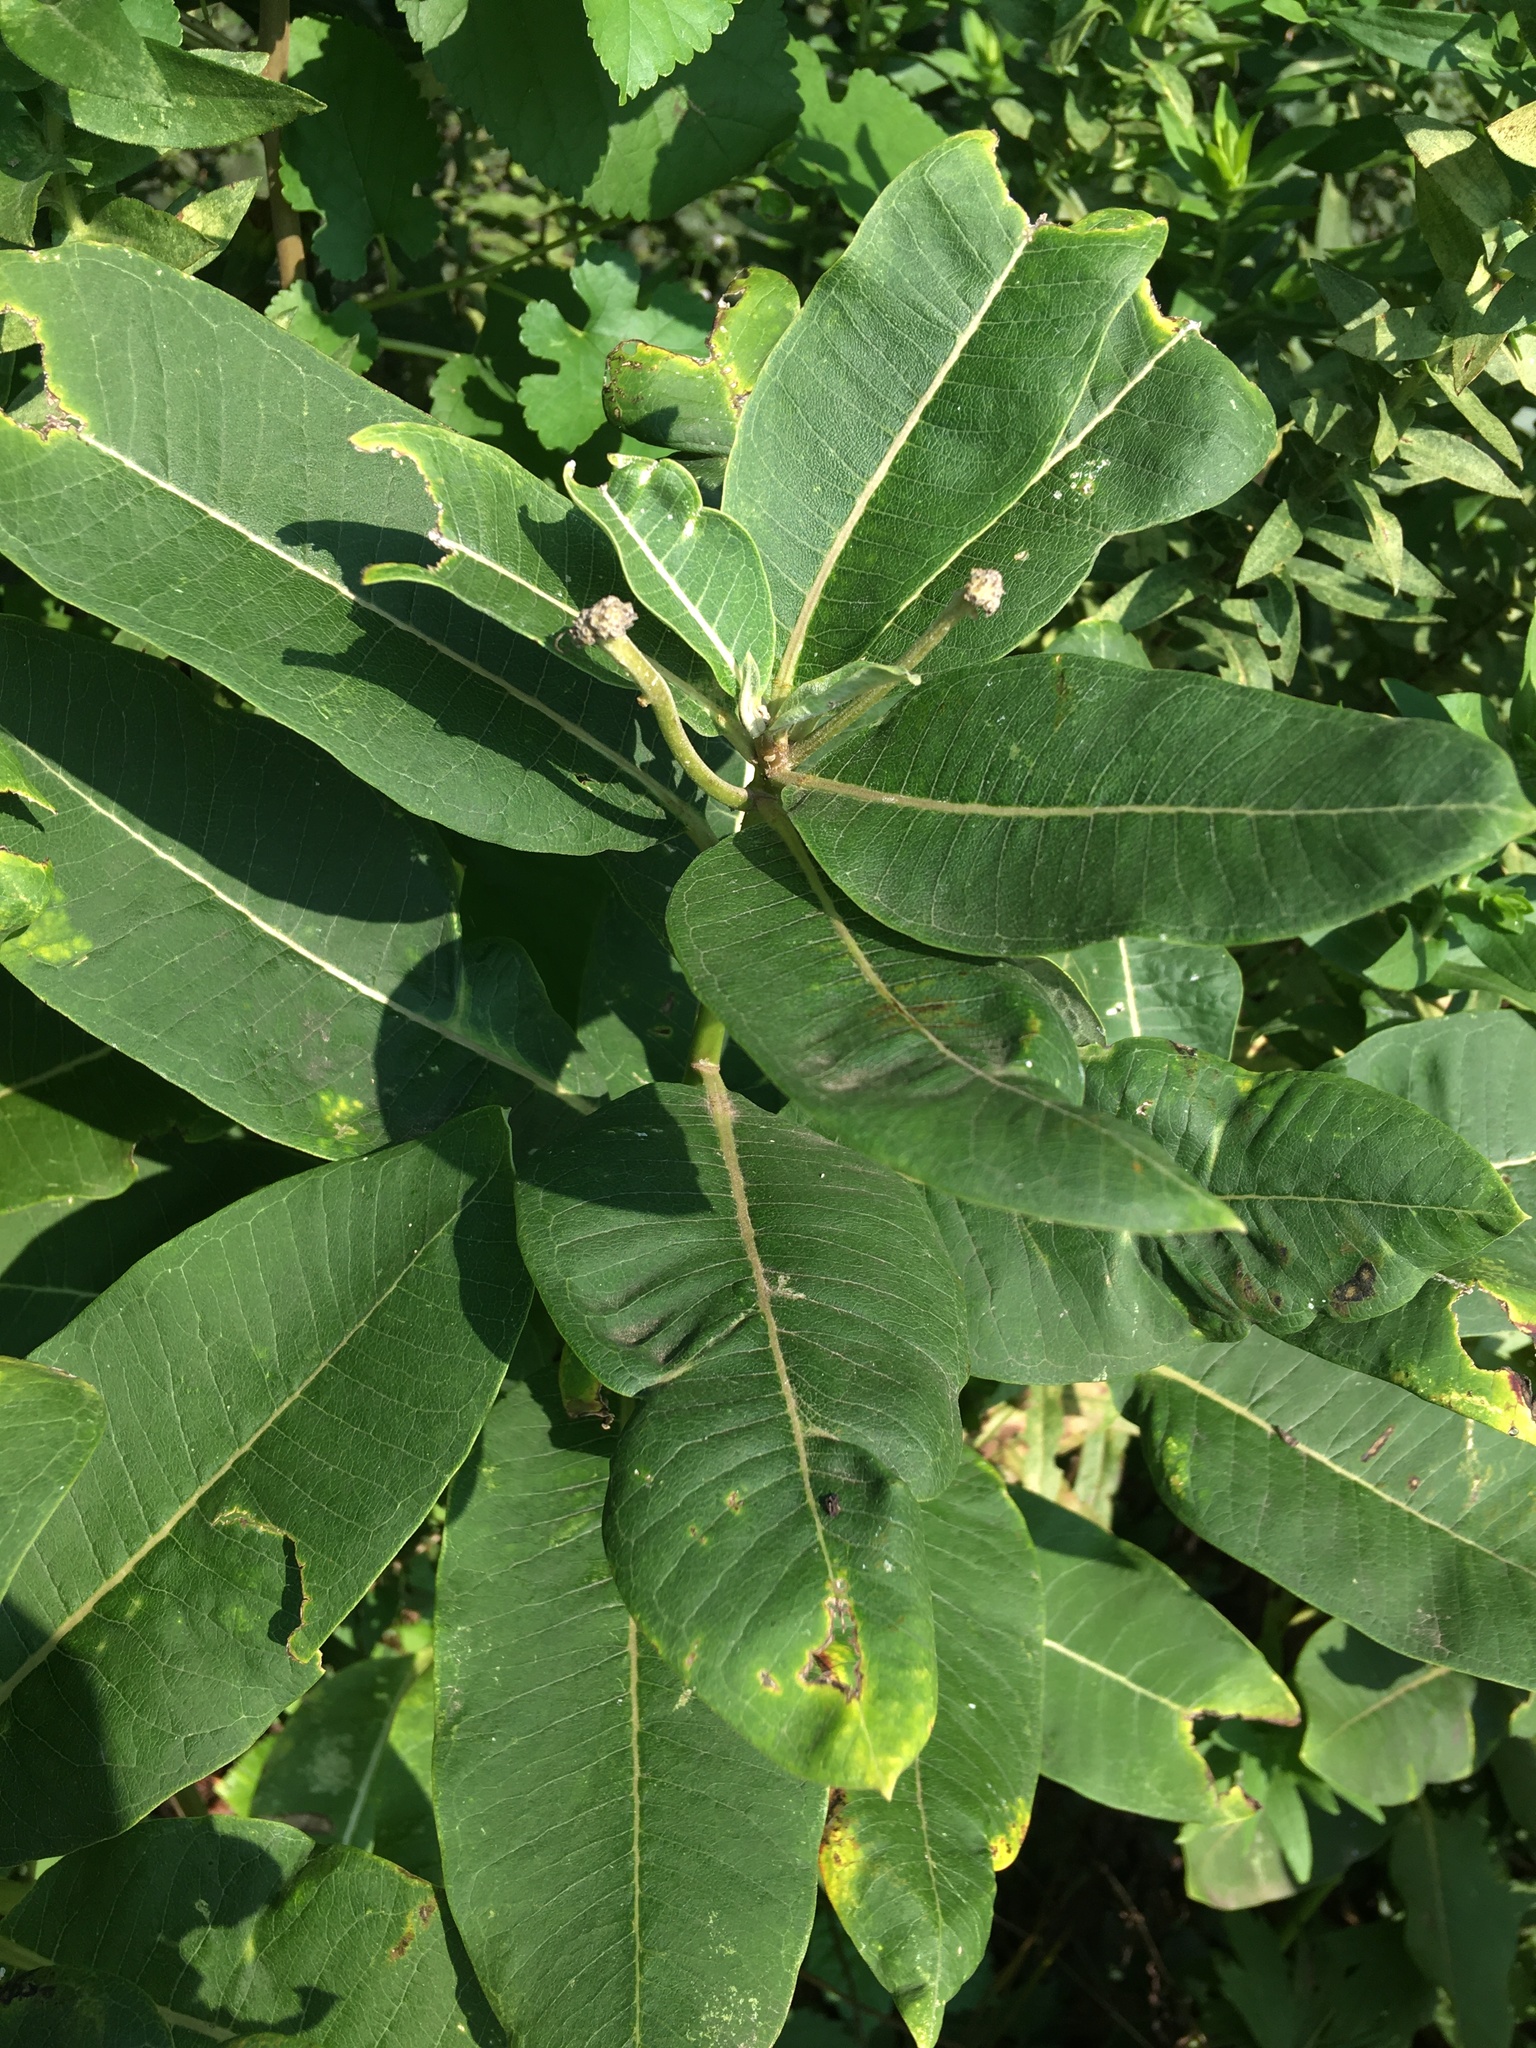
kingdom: Plantae
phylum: Tracheophyta
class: Magnoliopsida
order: Gentianales
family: Apocynaceae
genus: Asclepias
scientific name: Asclepias syriaca
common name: Common milkweed
